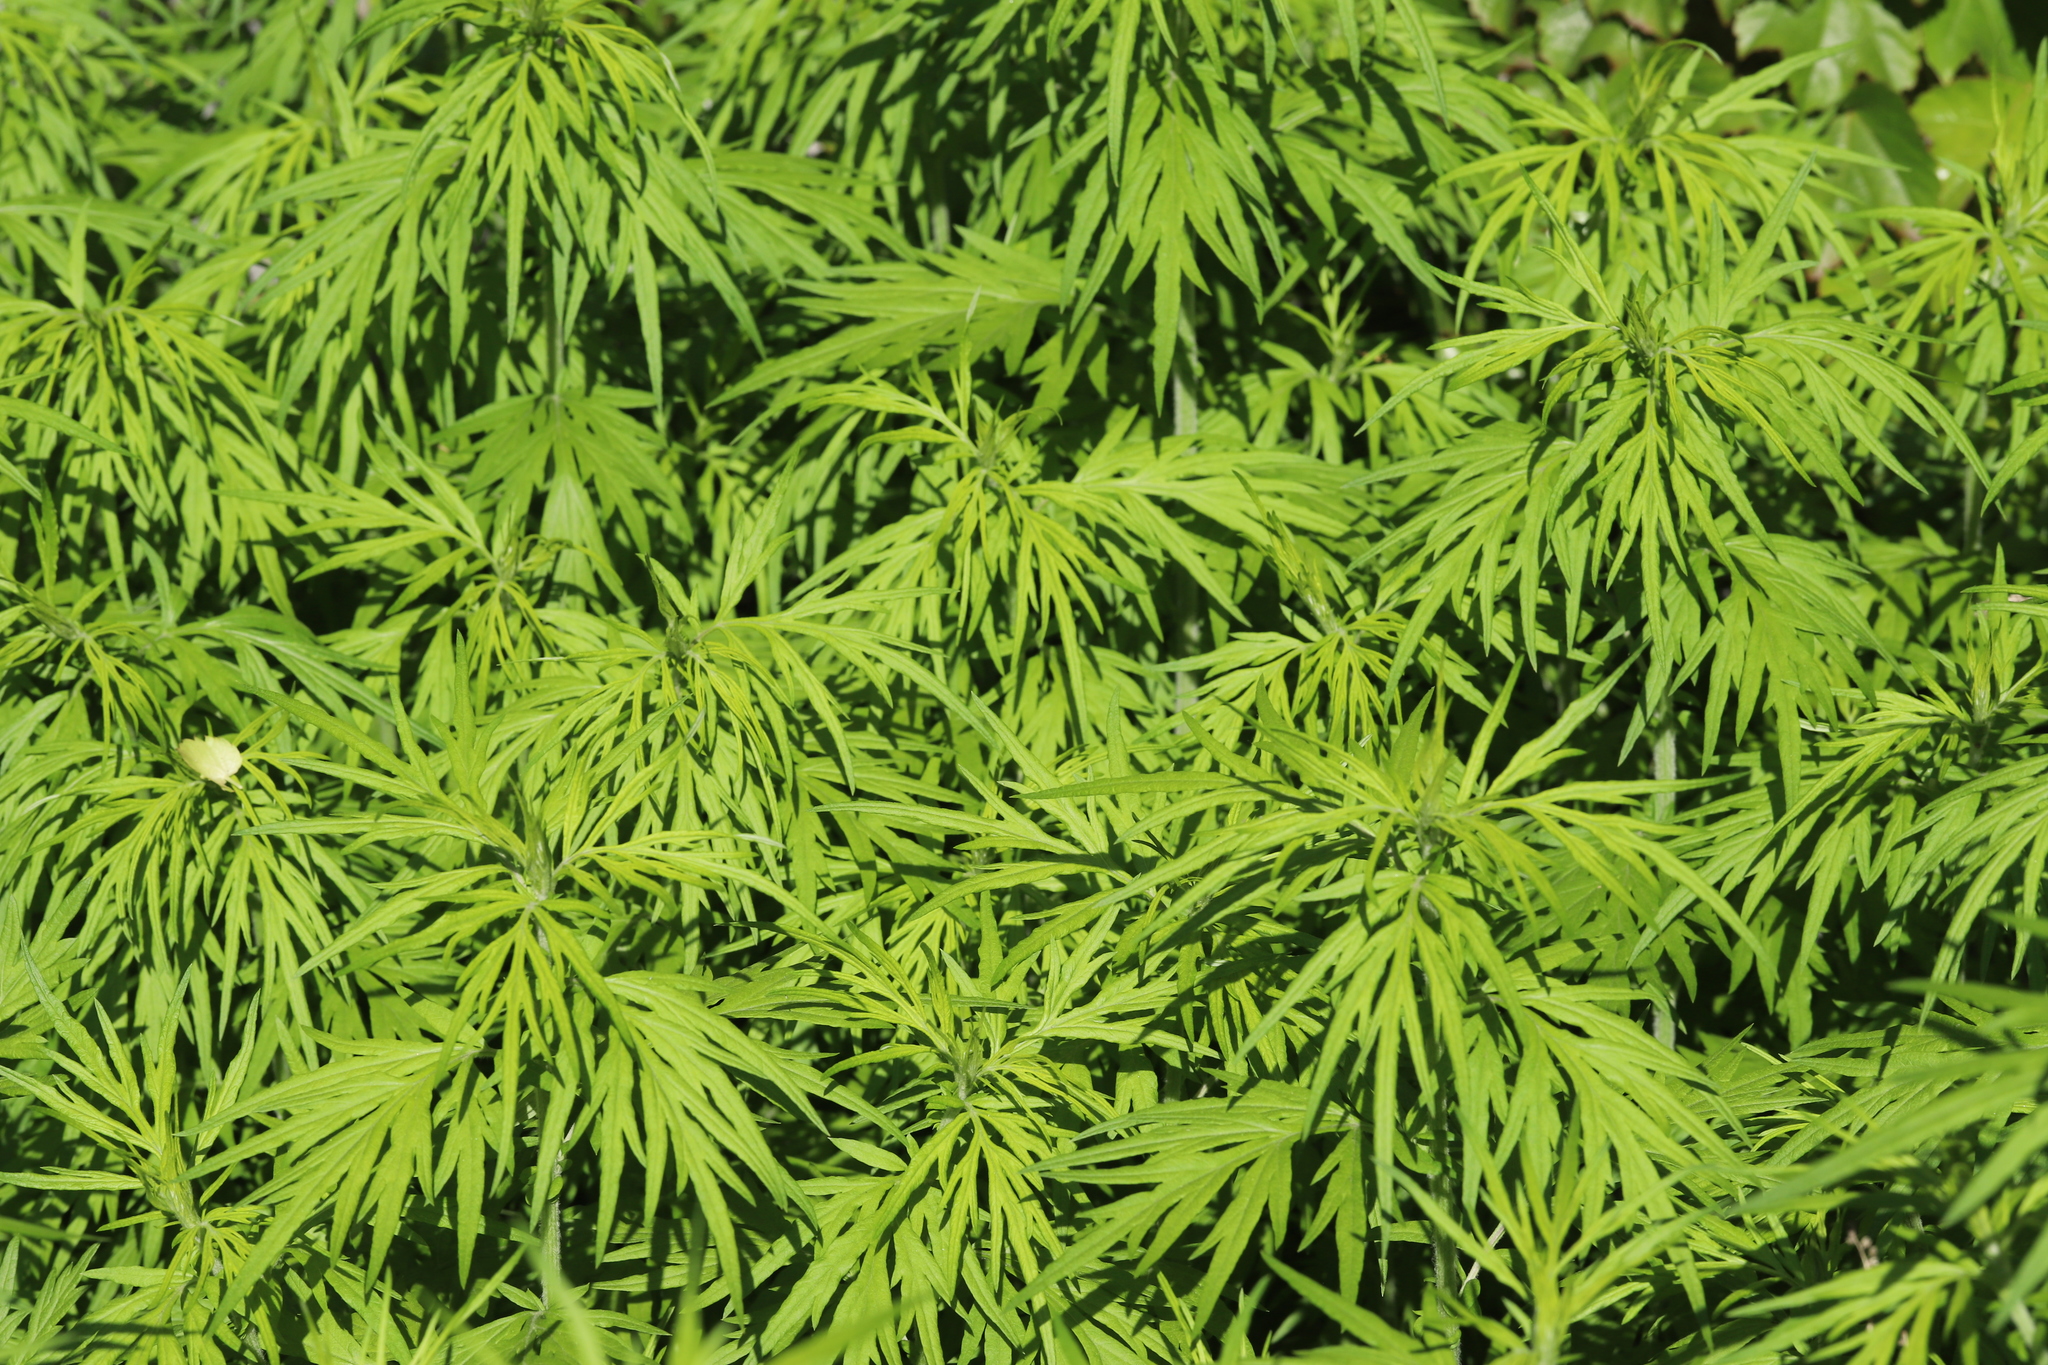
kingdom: Plantae
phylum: Tracheophyta
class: Magnoliopsida
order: Asterales
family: Asteraceae
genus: Artemisia
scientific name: Artemisia vulgaris
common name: Mugwort
